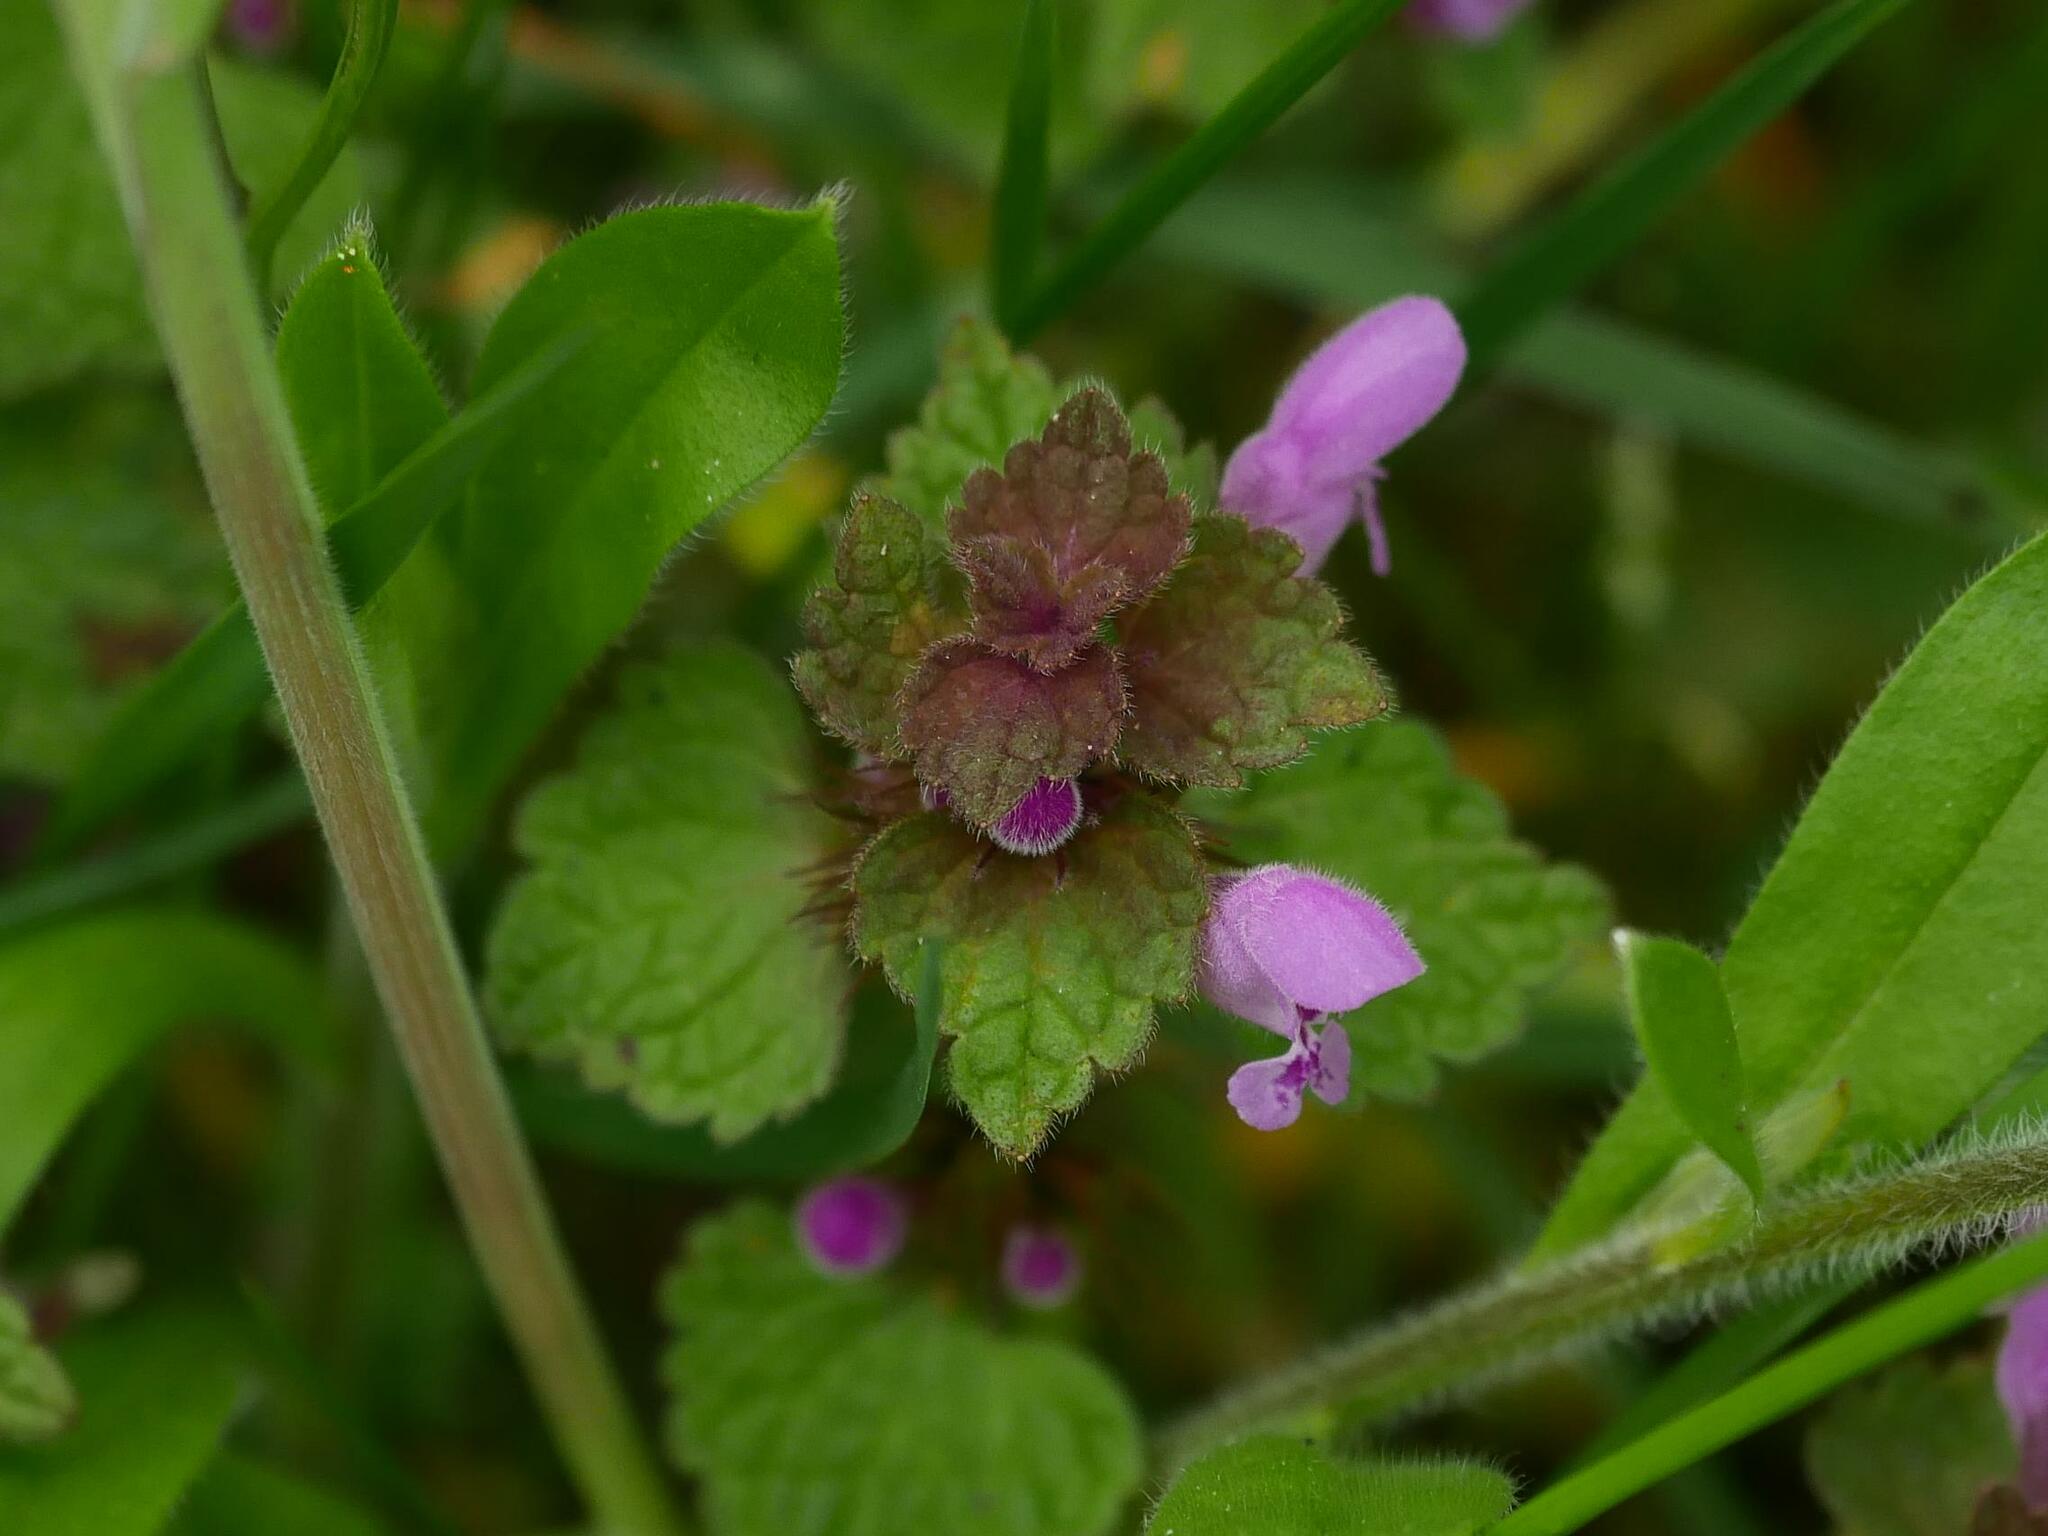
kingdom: Plantae
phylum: Tracheophyta
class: Magnoliopsida
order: Lamiales
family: Lamiaceae
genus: Lamium
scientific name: Lamium purpureum
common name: Red dead-nettle
